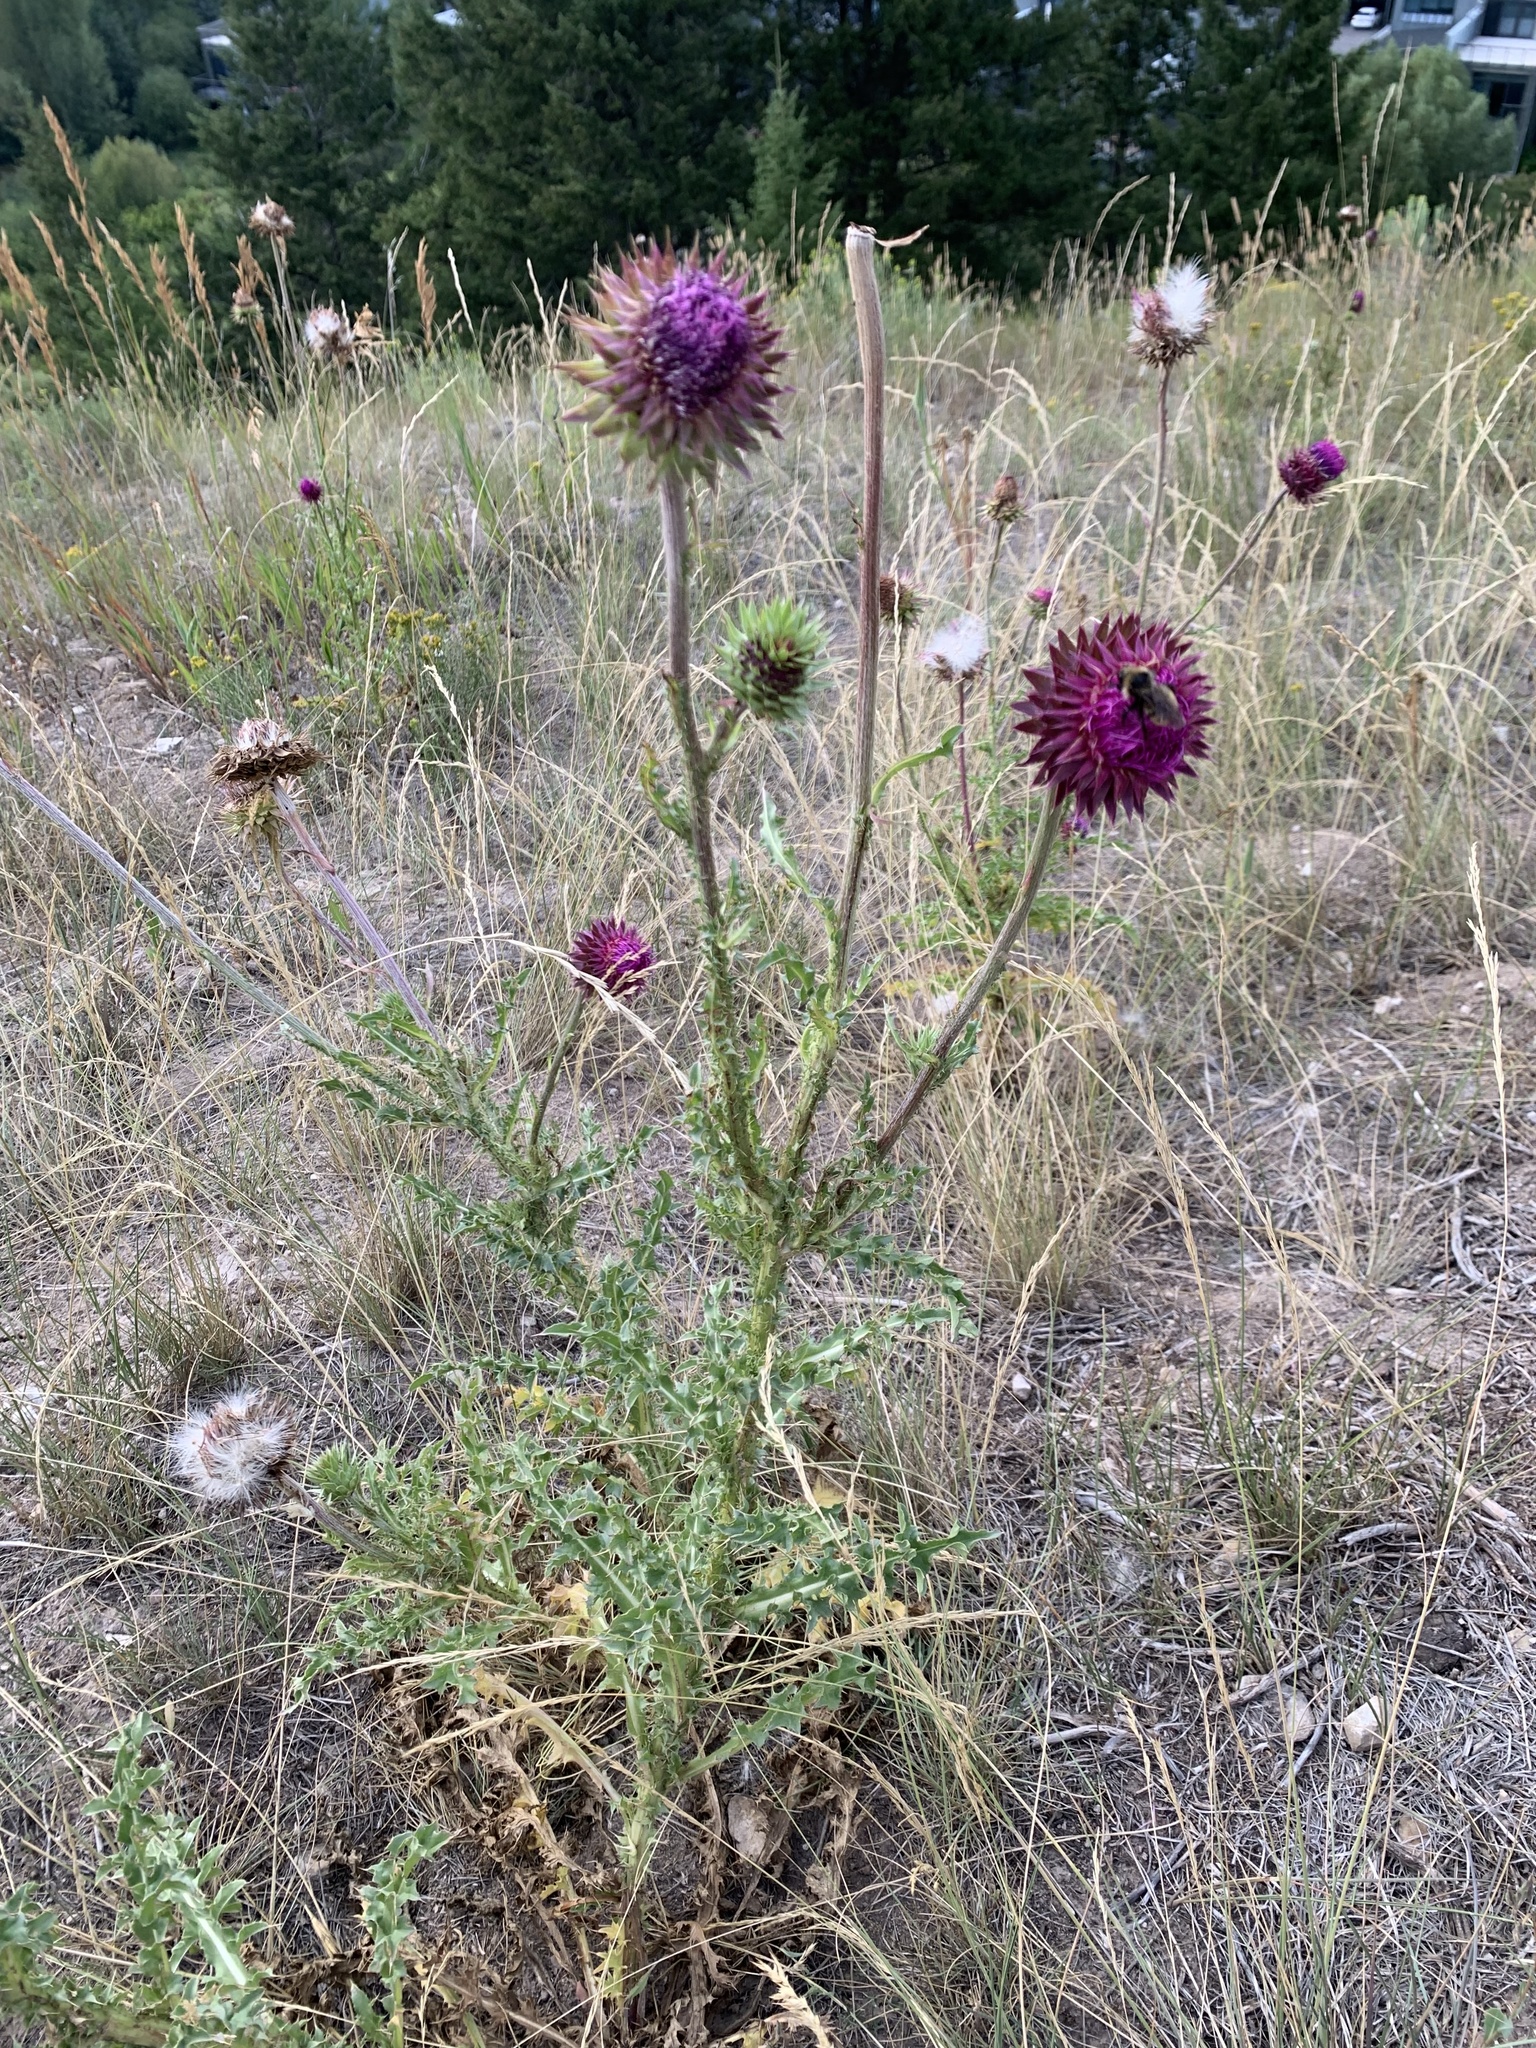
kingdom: Plantae
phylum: Tracheophyta
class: Magnoliopsida
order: Asterales
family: Asteraceae
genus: Carduus
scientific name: Carduus nutans
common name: Musk thistle
